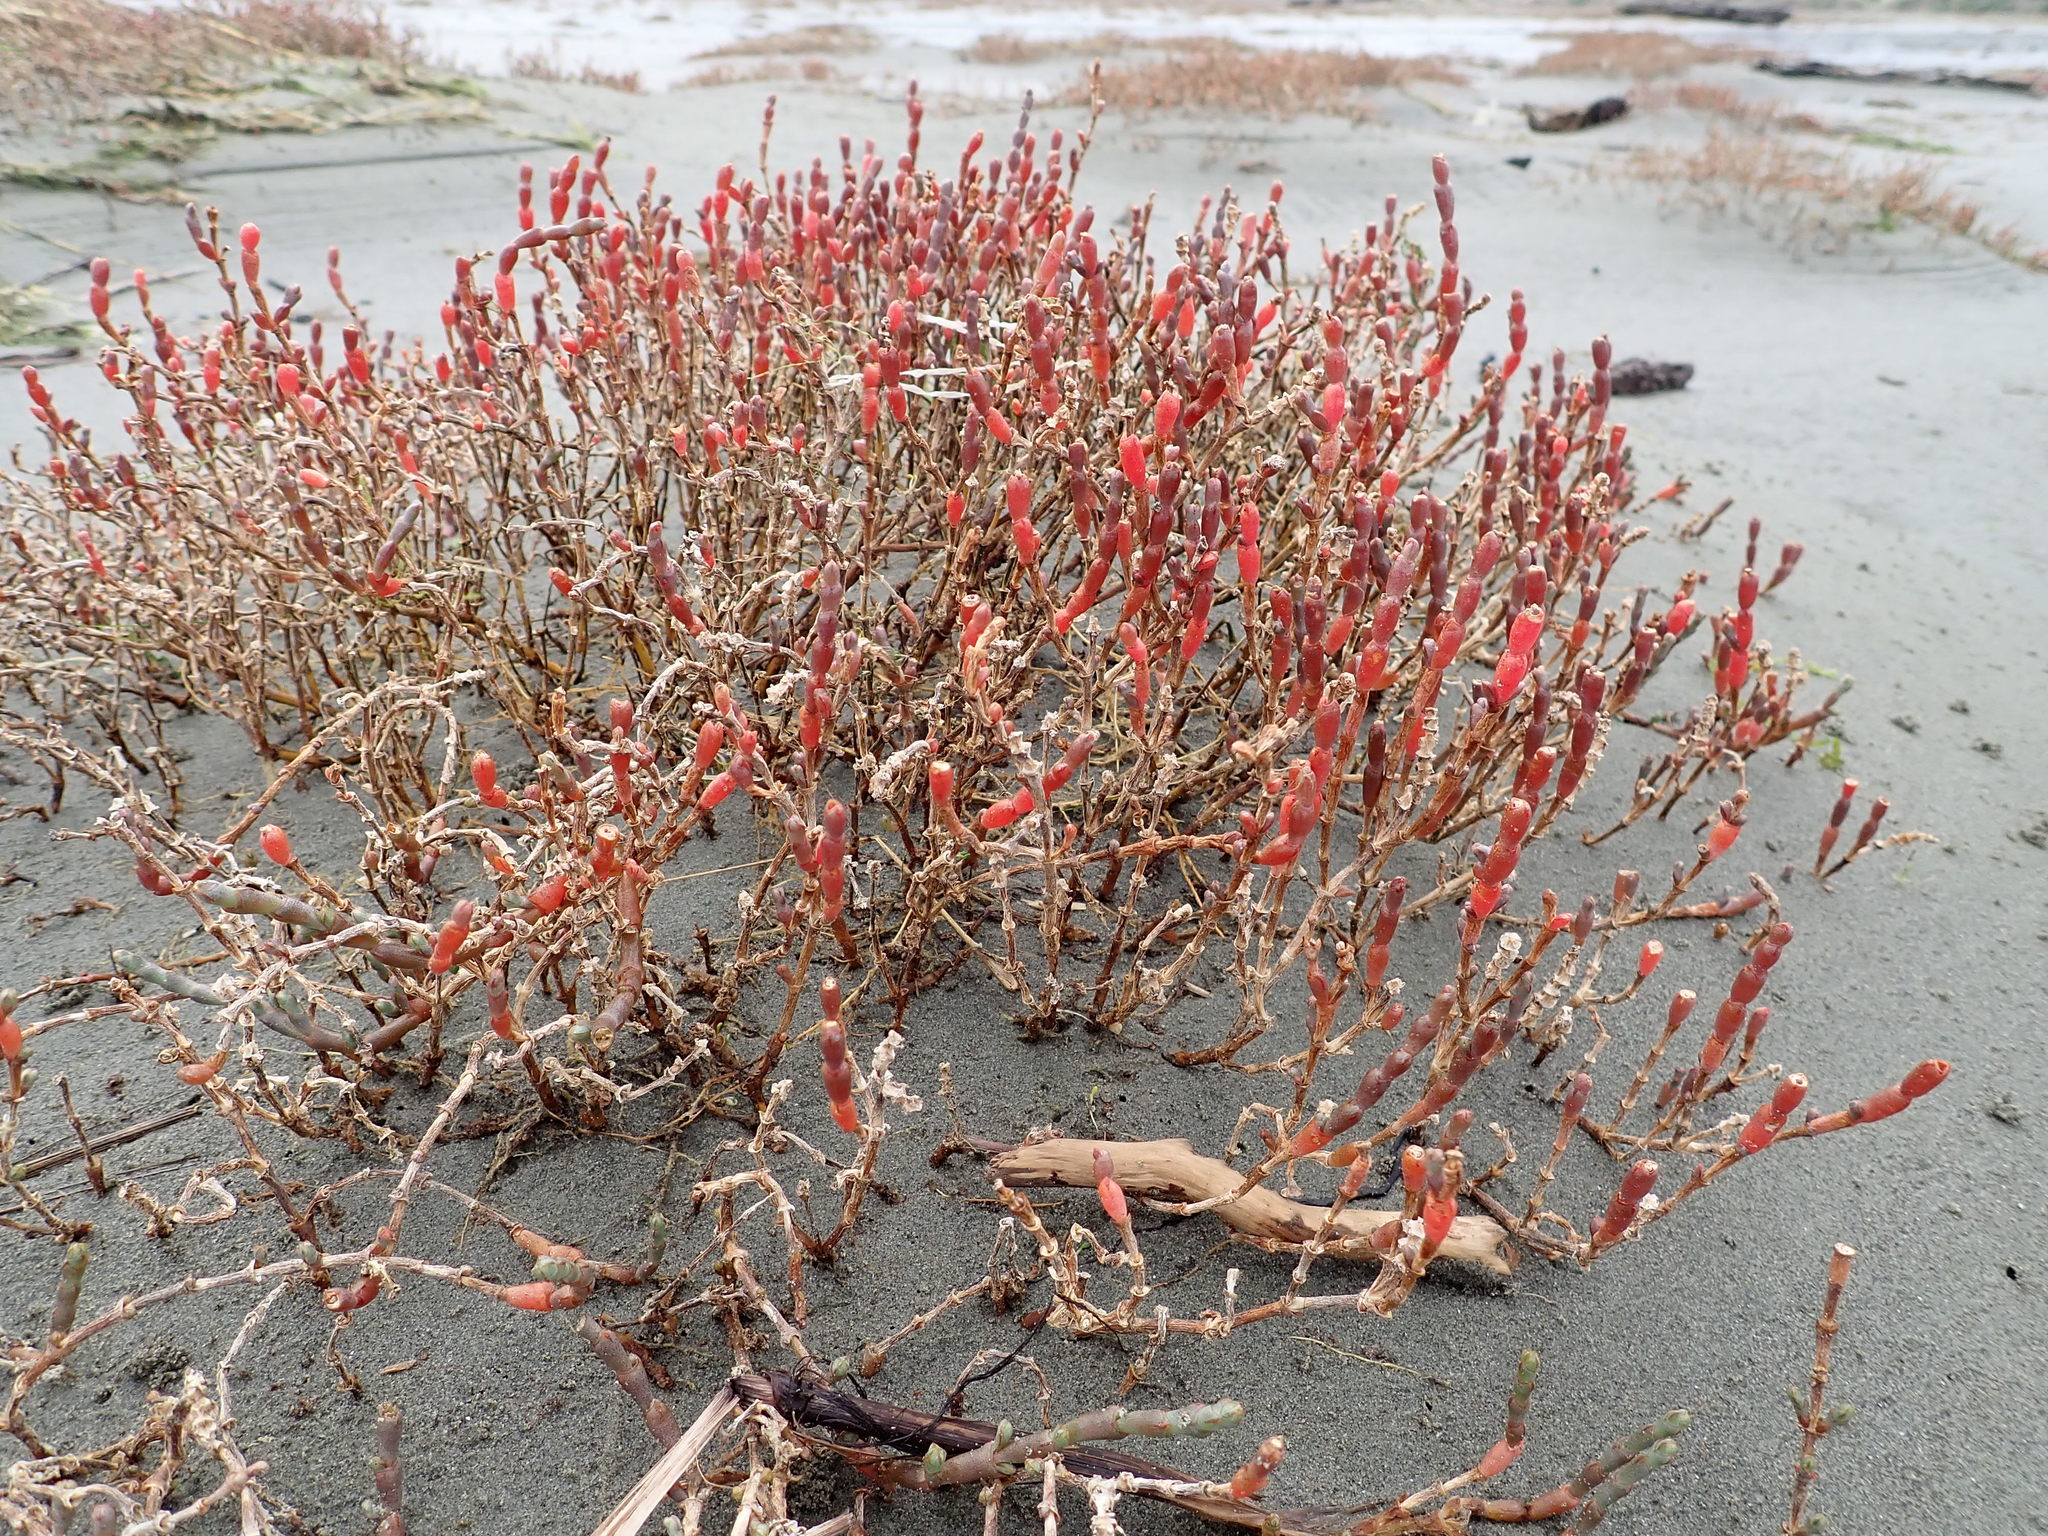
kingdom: Plantae
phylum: Tracheophyta
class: Magnoliopsida
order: Caryophyllales
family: Amaranthaceae
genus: Salicornia
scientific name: Salicornia quinqueflora
